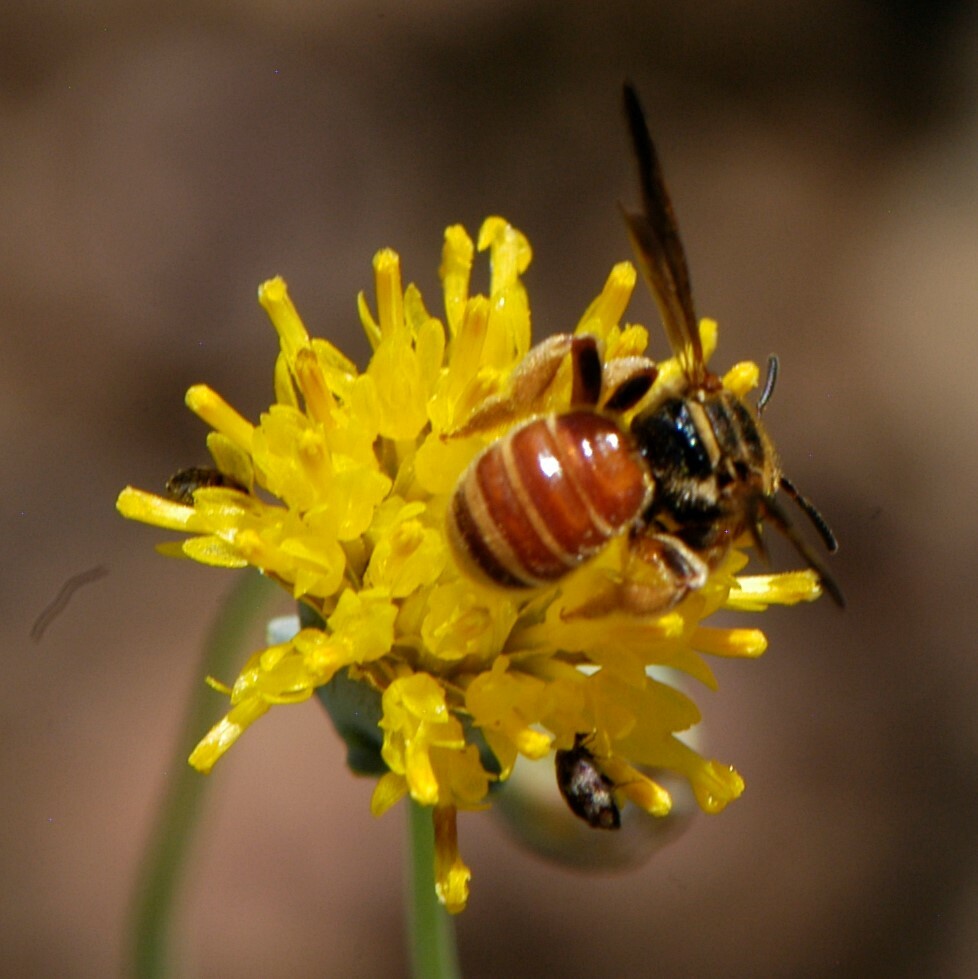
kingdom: Animalia
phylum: Arthropoda
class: Insecta
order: Hymenoptera
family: Halictidae
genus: Dieunomia
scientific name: Dieunomia nevadensis
